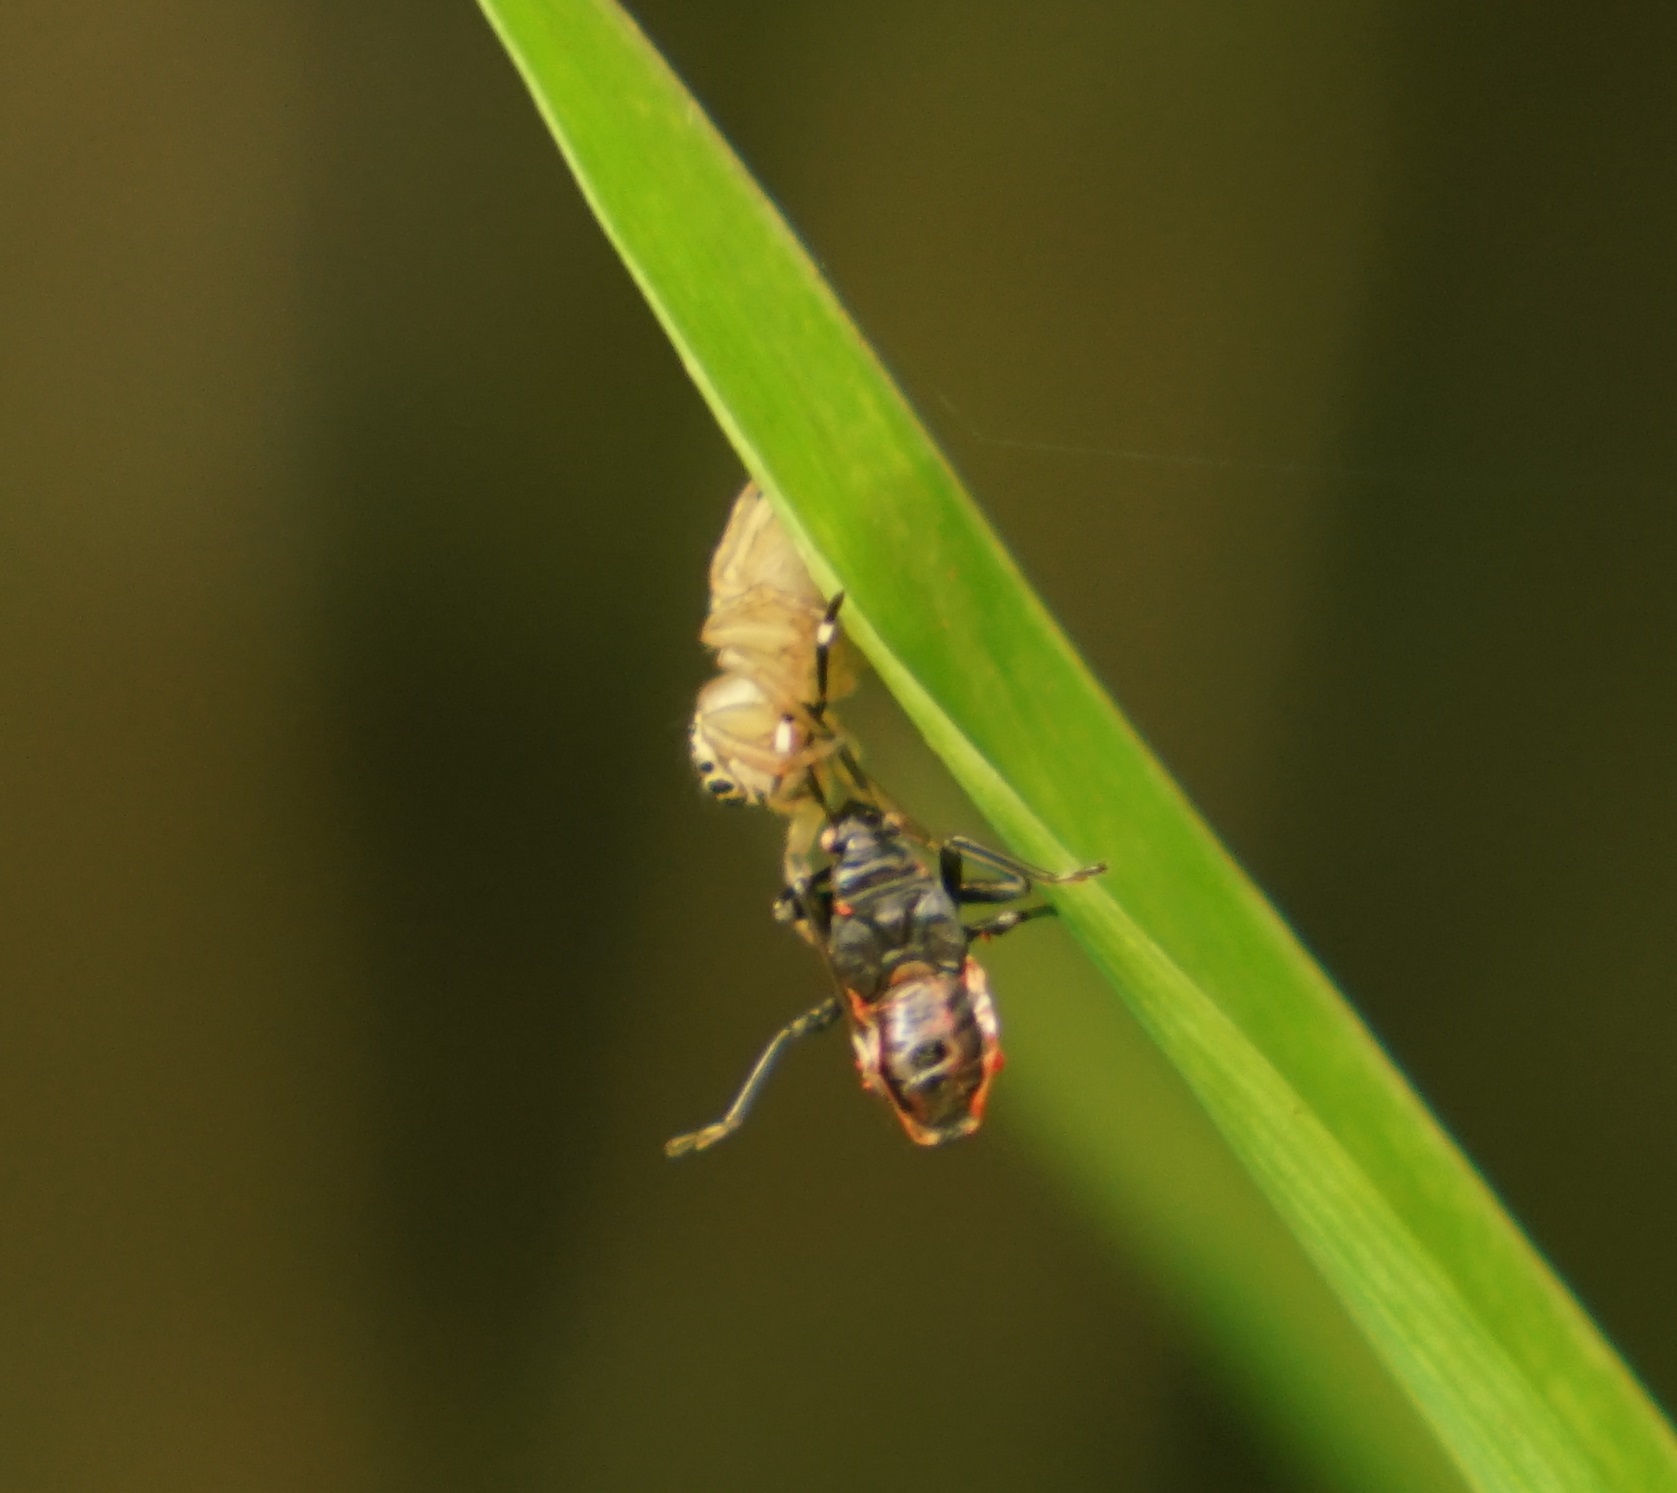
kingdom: Animalia
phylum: Arthropoda
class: Arachnida
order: Araneae
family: Salticidae
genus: Maratus
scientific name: Maratus scutulatus
